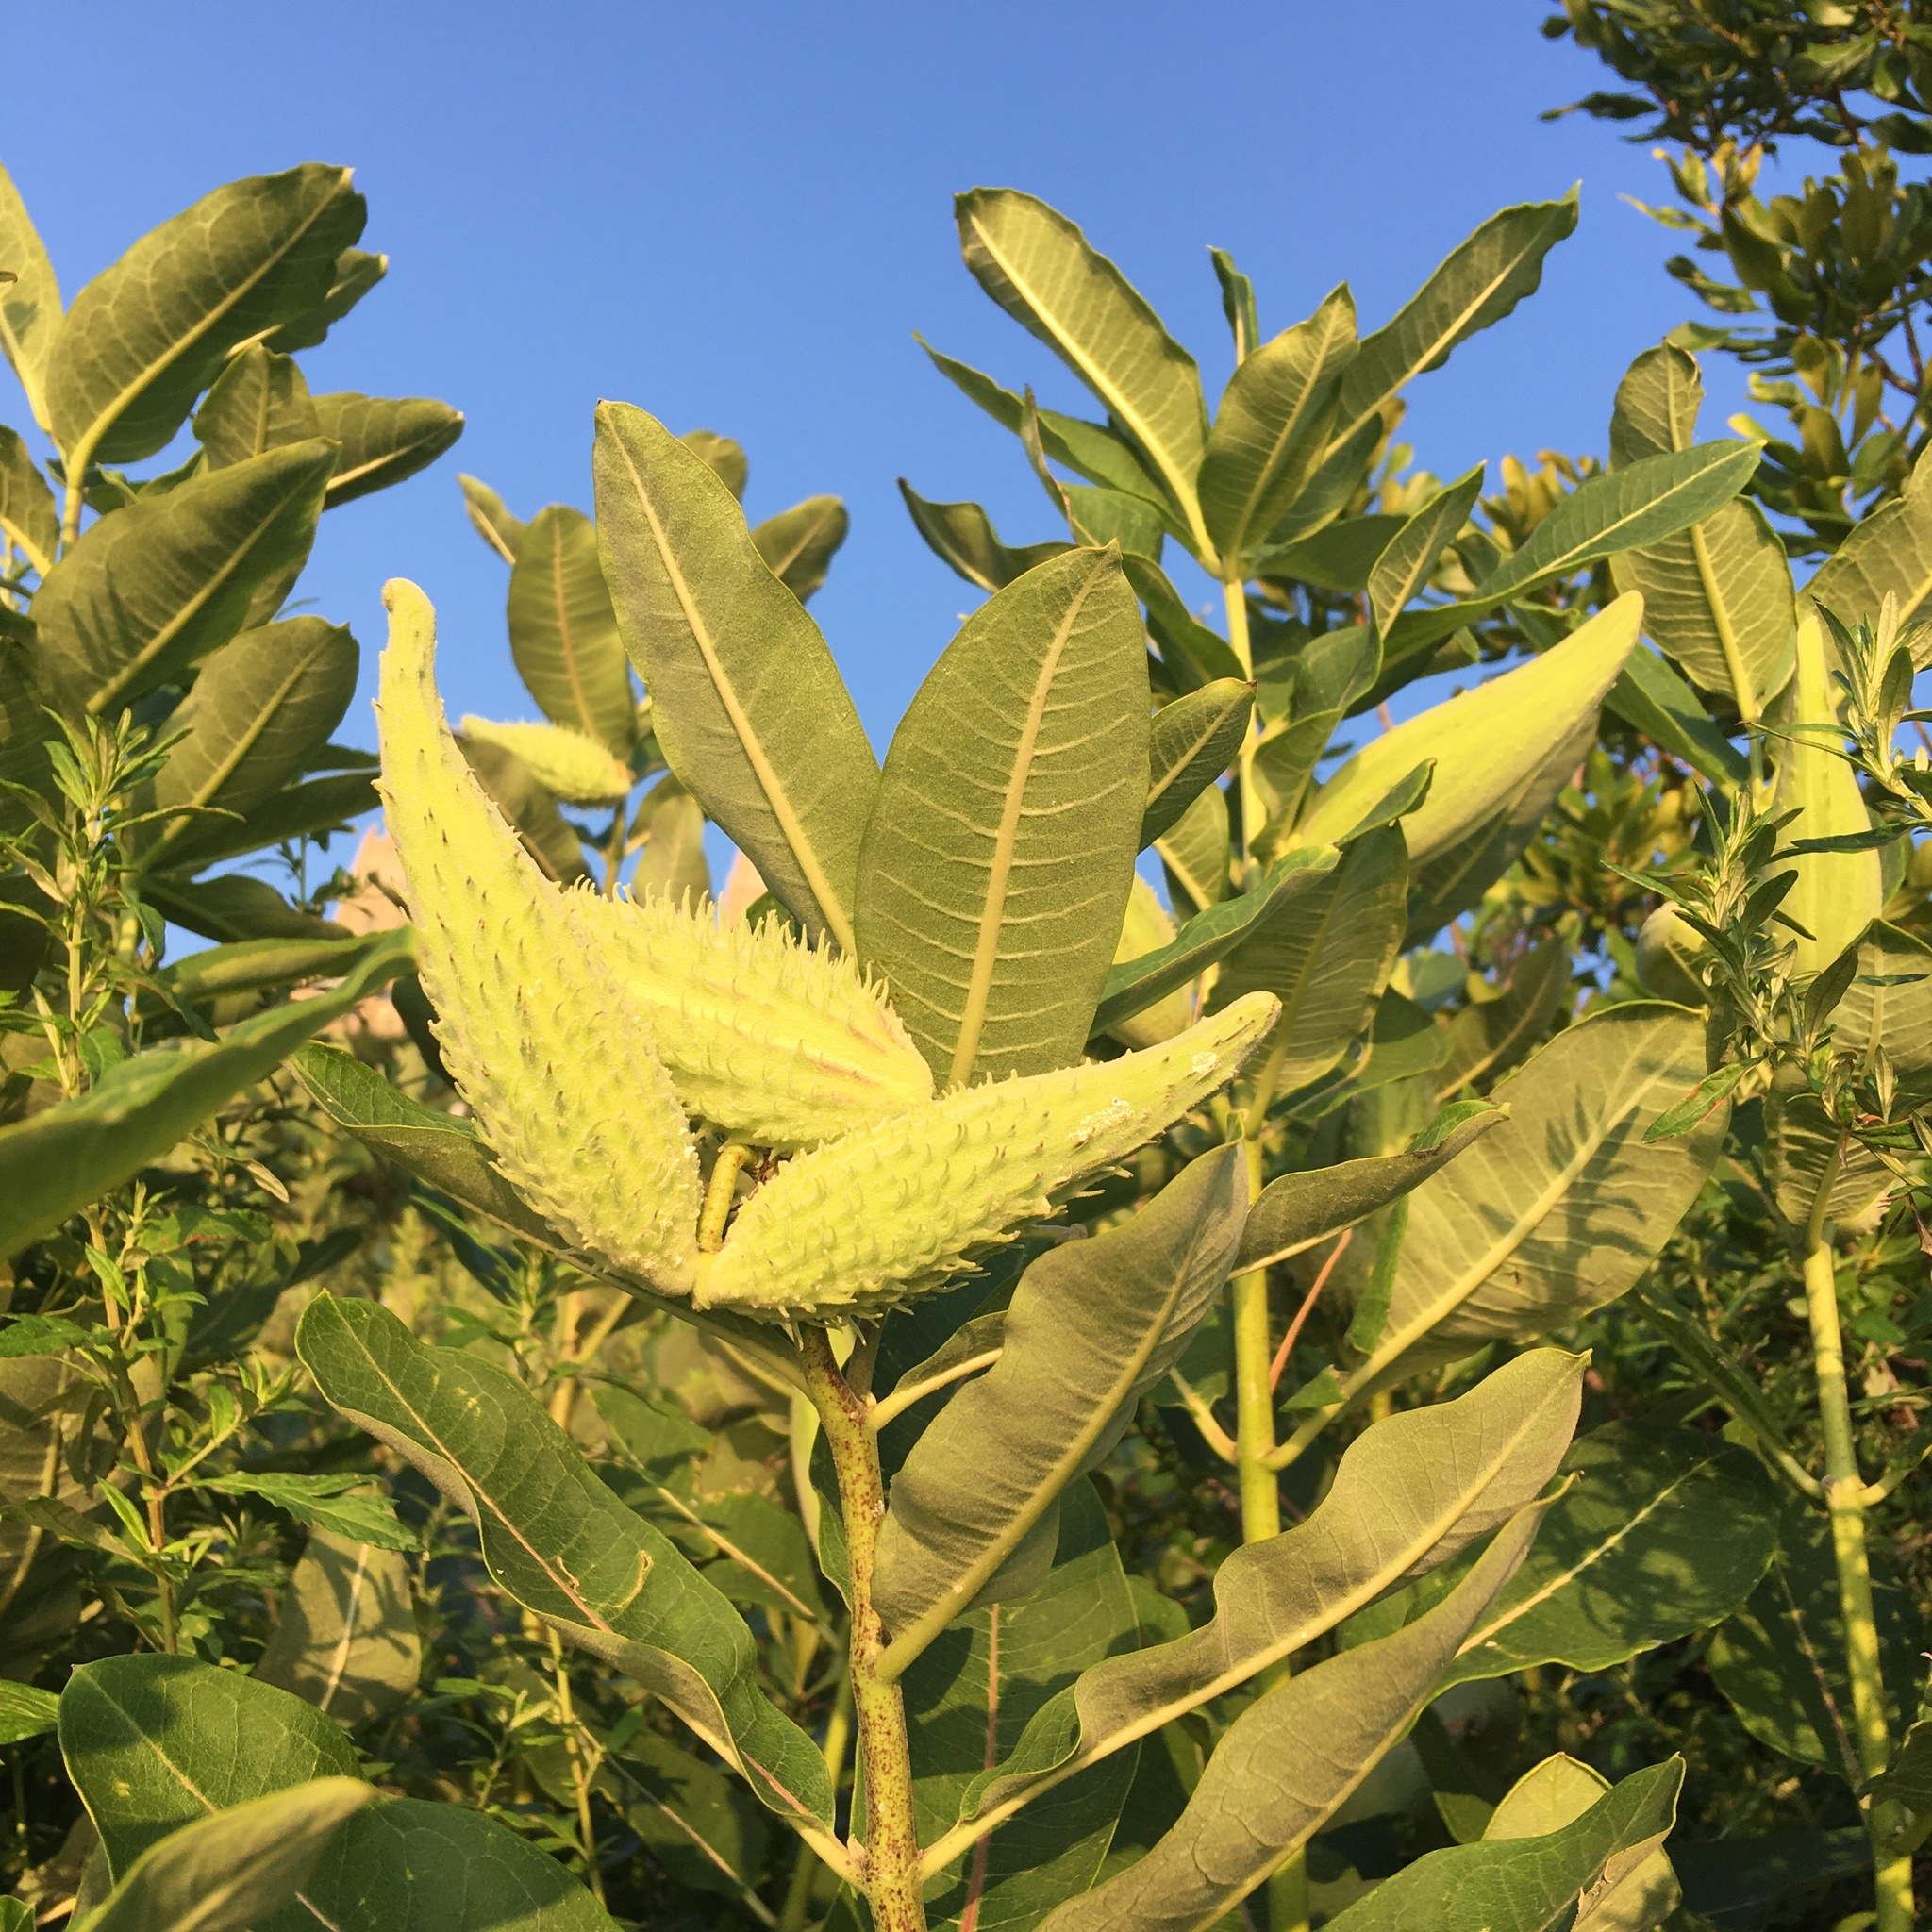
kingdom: Plantae
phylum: Tracheophyta
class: Magnoliopsida
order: Gentianales
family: Apocynaceae
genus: Asclepias
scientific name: Asclepias syriaca
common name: Common milkweed
